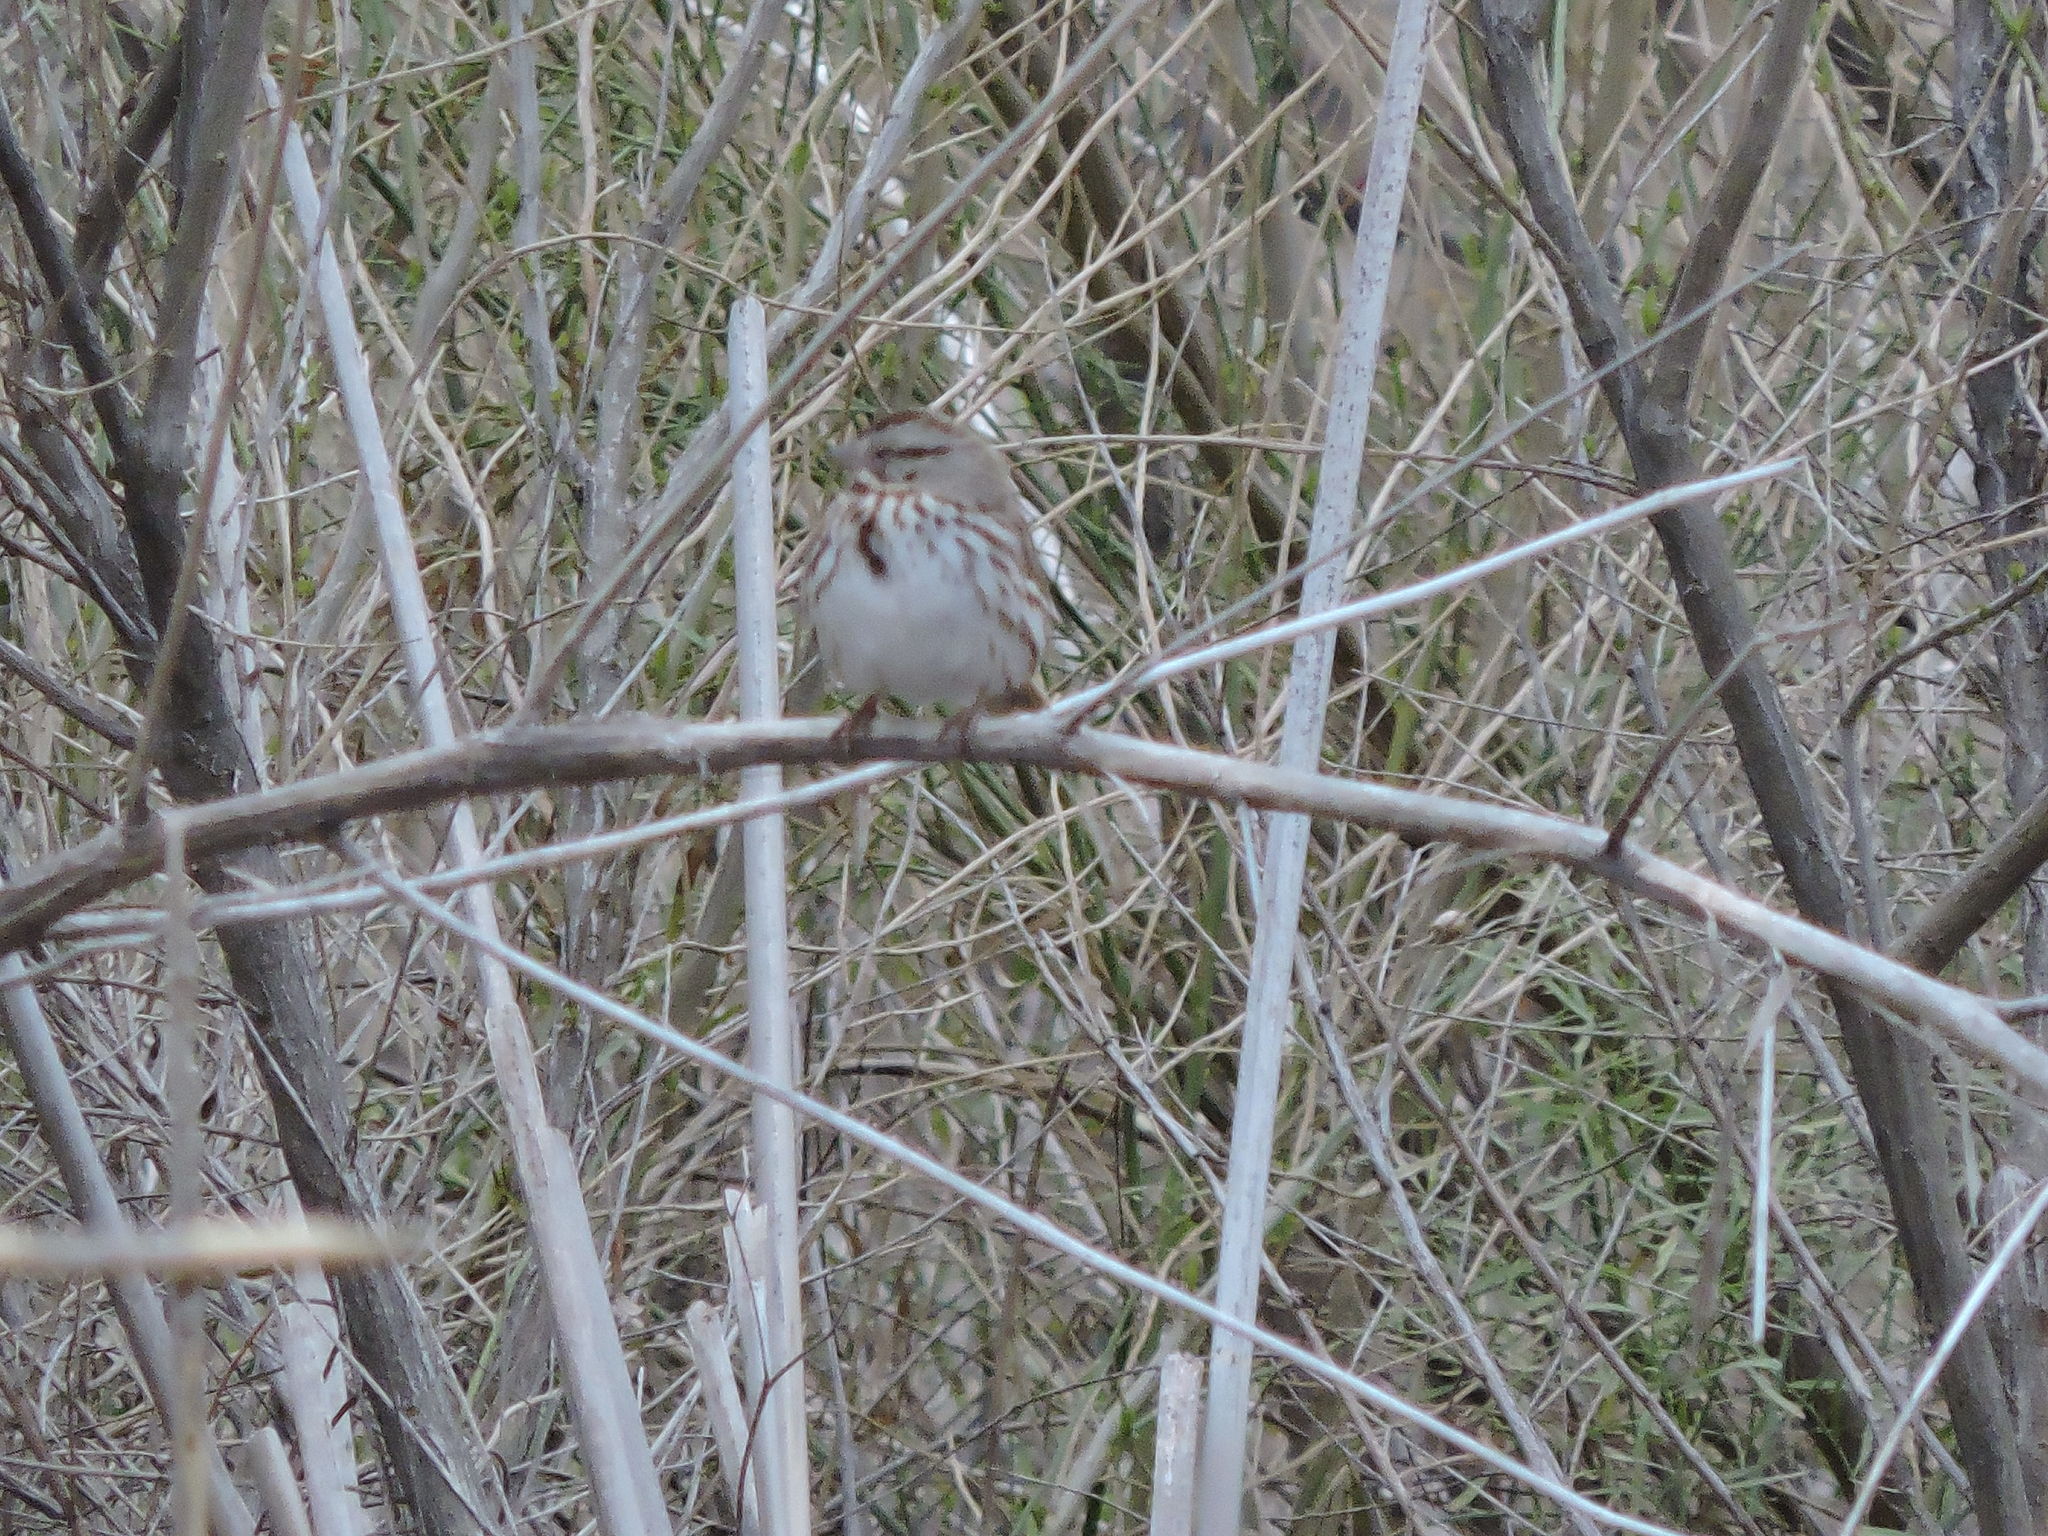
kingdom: Animalia
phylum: Chordata
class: Aves
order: Passeriformes
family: Passerellidae
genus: Melospiza
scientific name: Melospiza melodia
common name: Song sparrow
